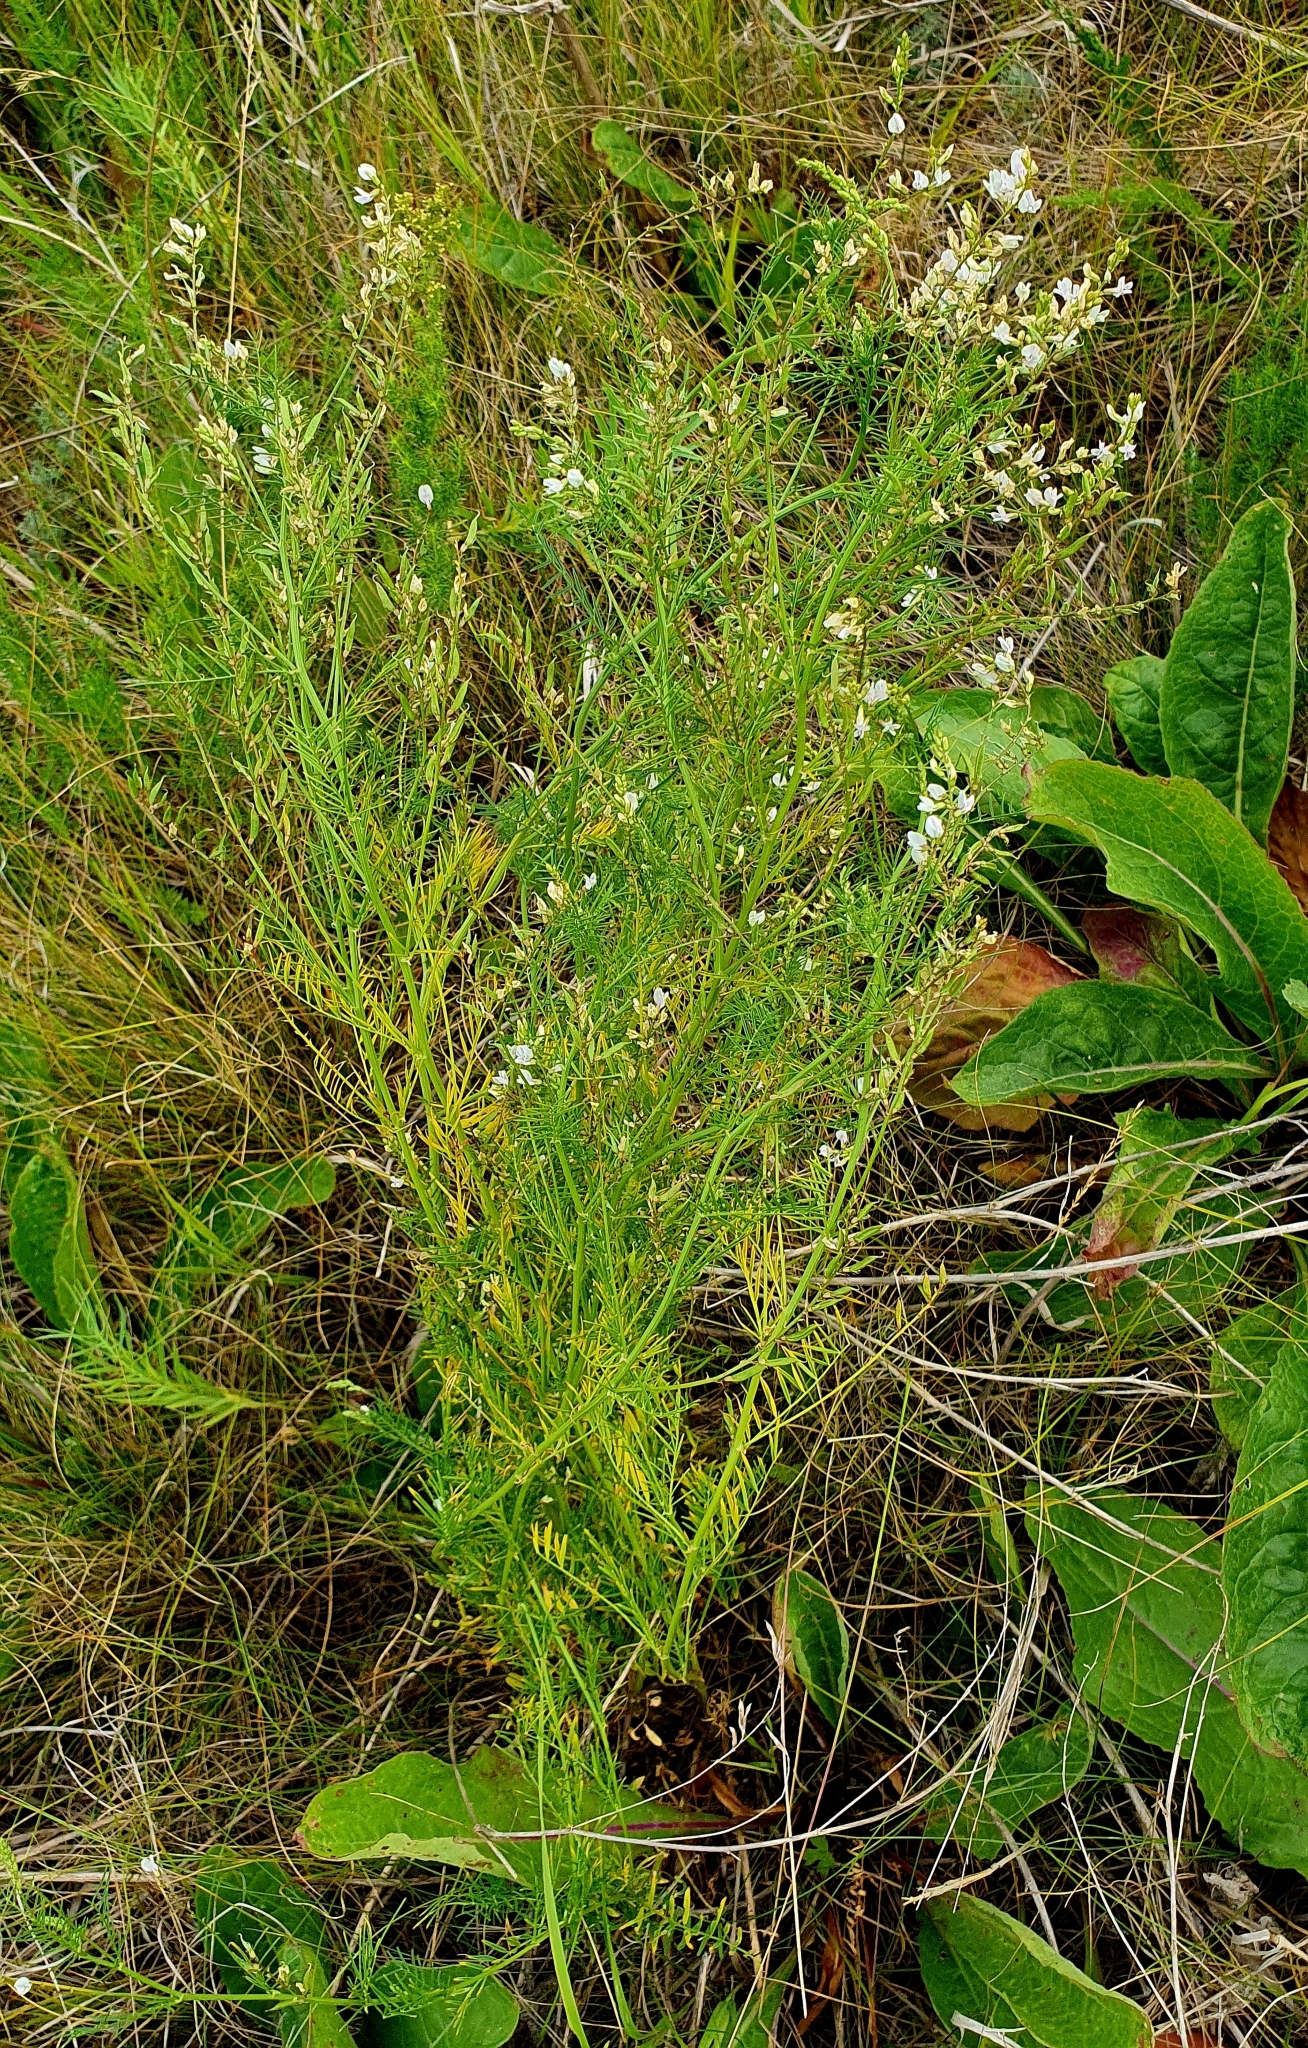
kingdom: Plantae
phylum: Tracheophyta
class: Magnoliopsida
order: Fabales
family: Fabaceae
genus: Astragalus
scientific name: Astragalus sulcatus
